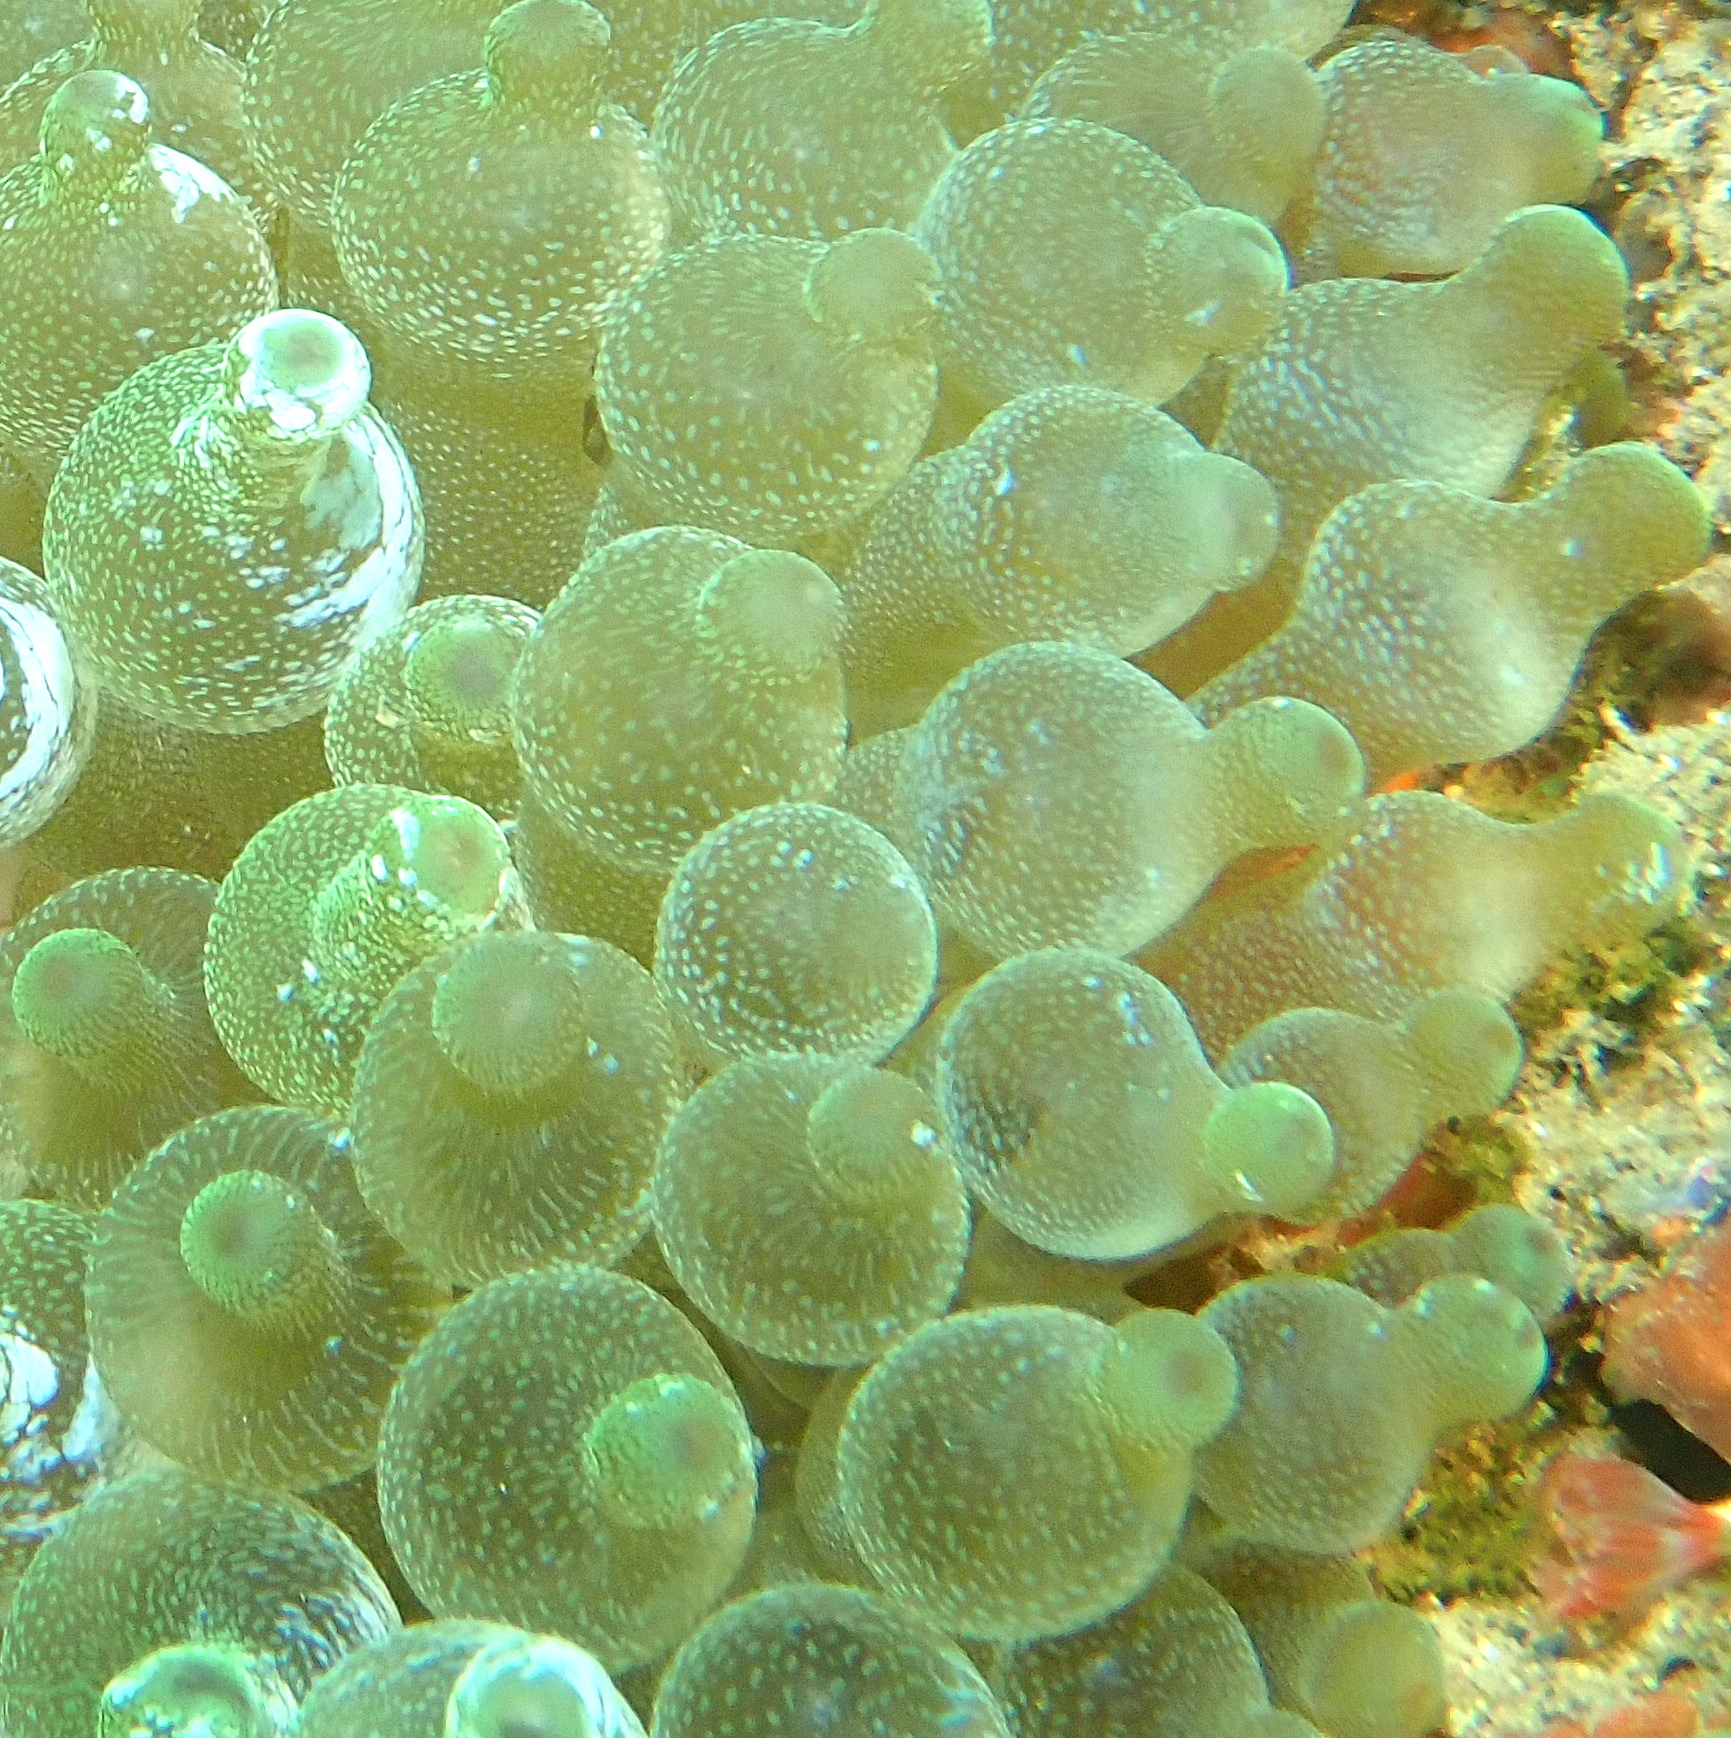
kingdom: Animalia
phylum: Cnidaria
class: Anthozoa
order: Actiniaria
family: Actiniidae
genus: Entacmaea
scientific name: Entacmaea quadricolor
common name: Bulb tentacle sea anemone
